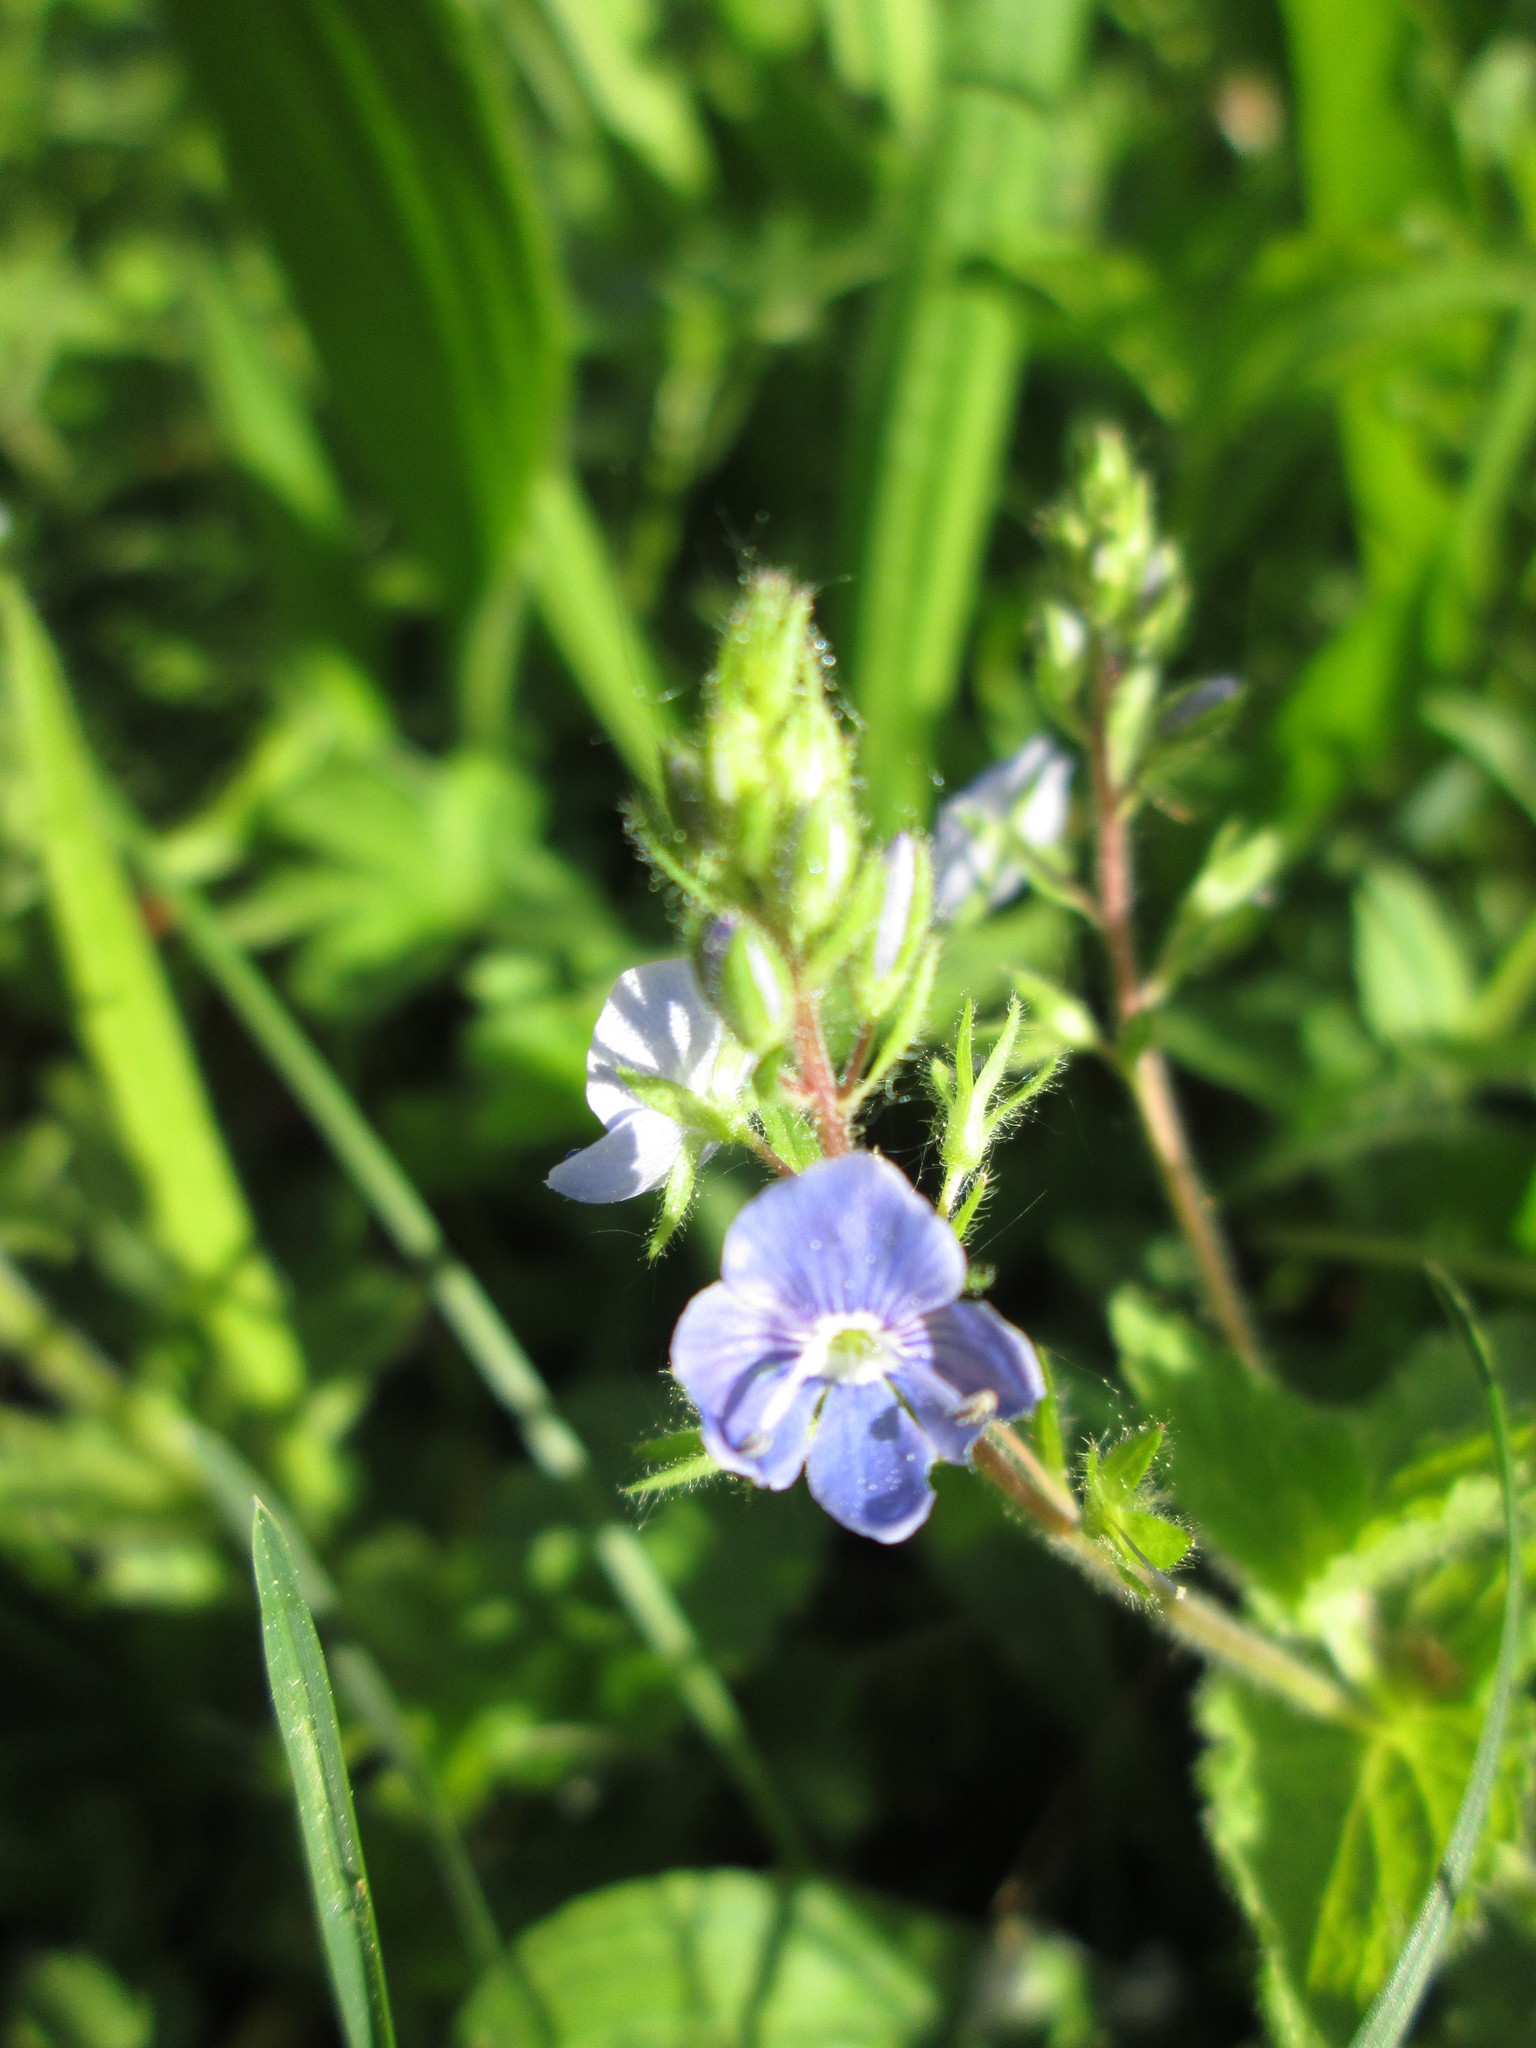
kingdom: Plantae
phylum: Tracheophyta
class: Magnoliopsida
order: Lamiales
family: Plantaginaceae
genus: Veronica
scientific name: Veronica chamaedrys
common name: Germander speedwell
